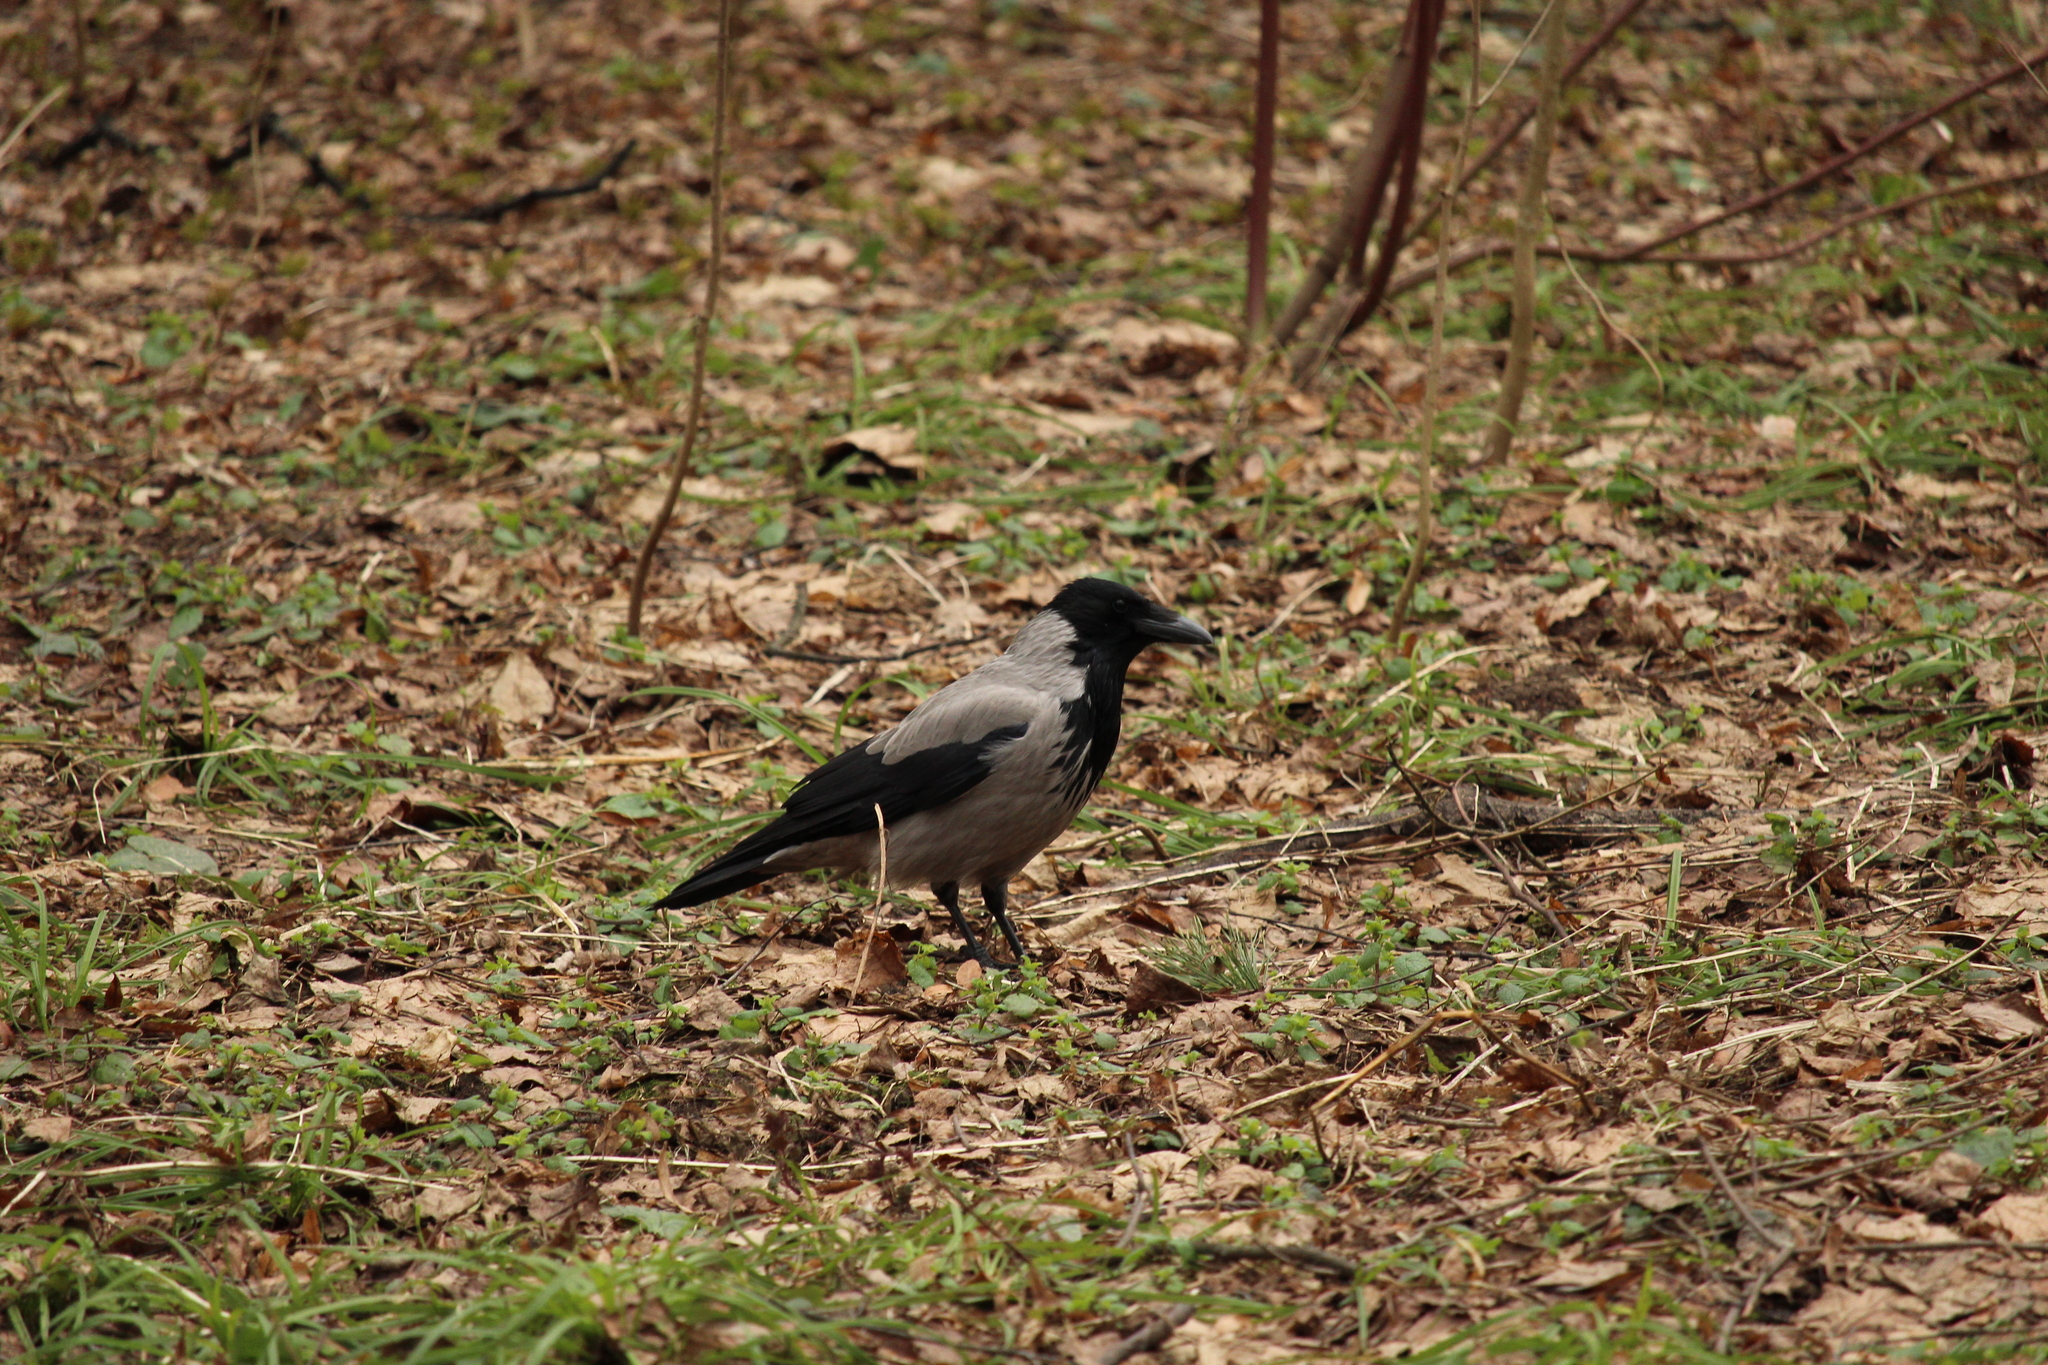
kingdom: Animalia
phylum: Chordata
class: Aves
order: Passeriformes
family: Corvidae
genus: Corvus
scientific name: Corvus cornix
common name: Hooded crow
